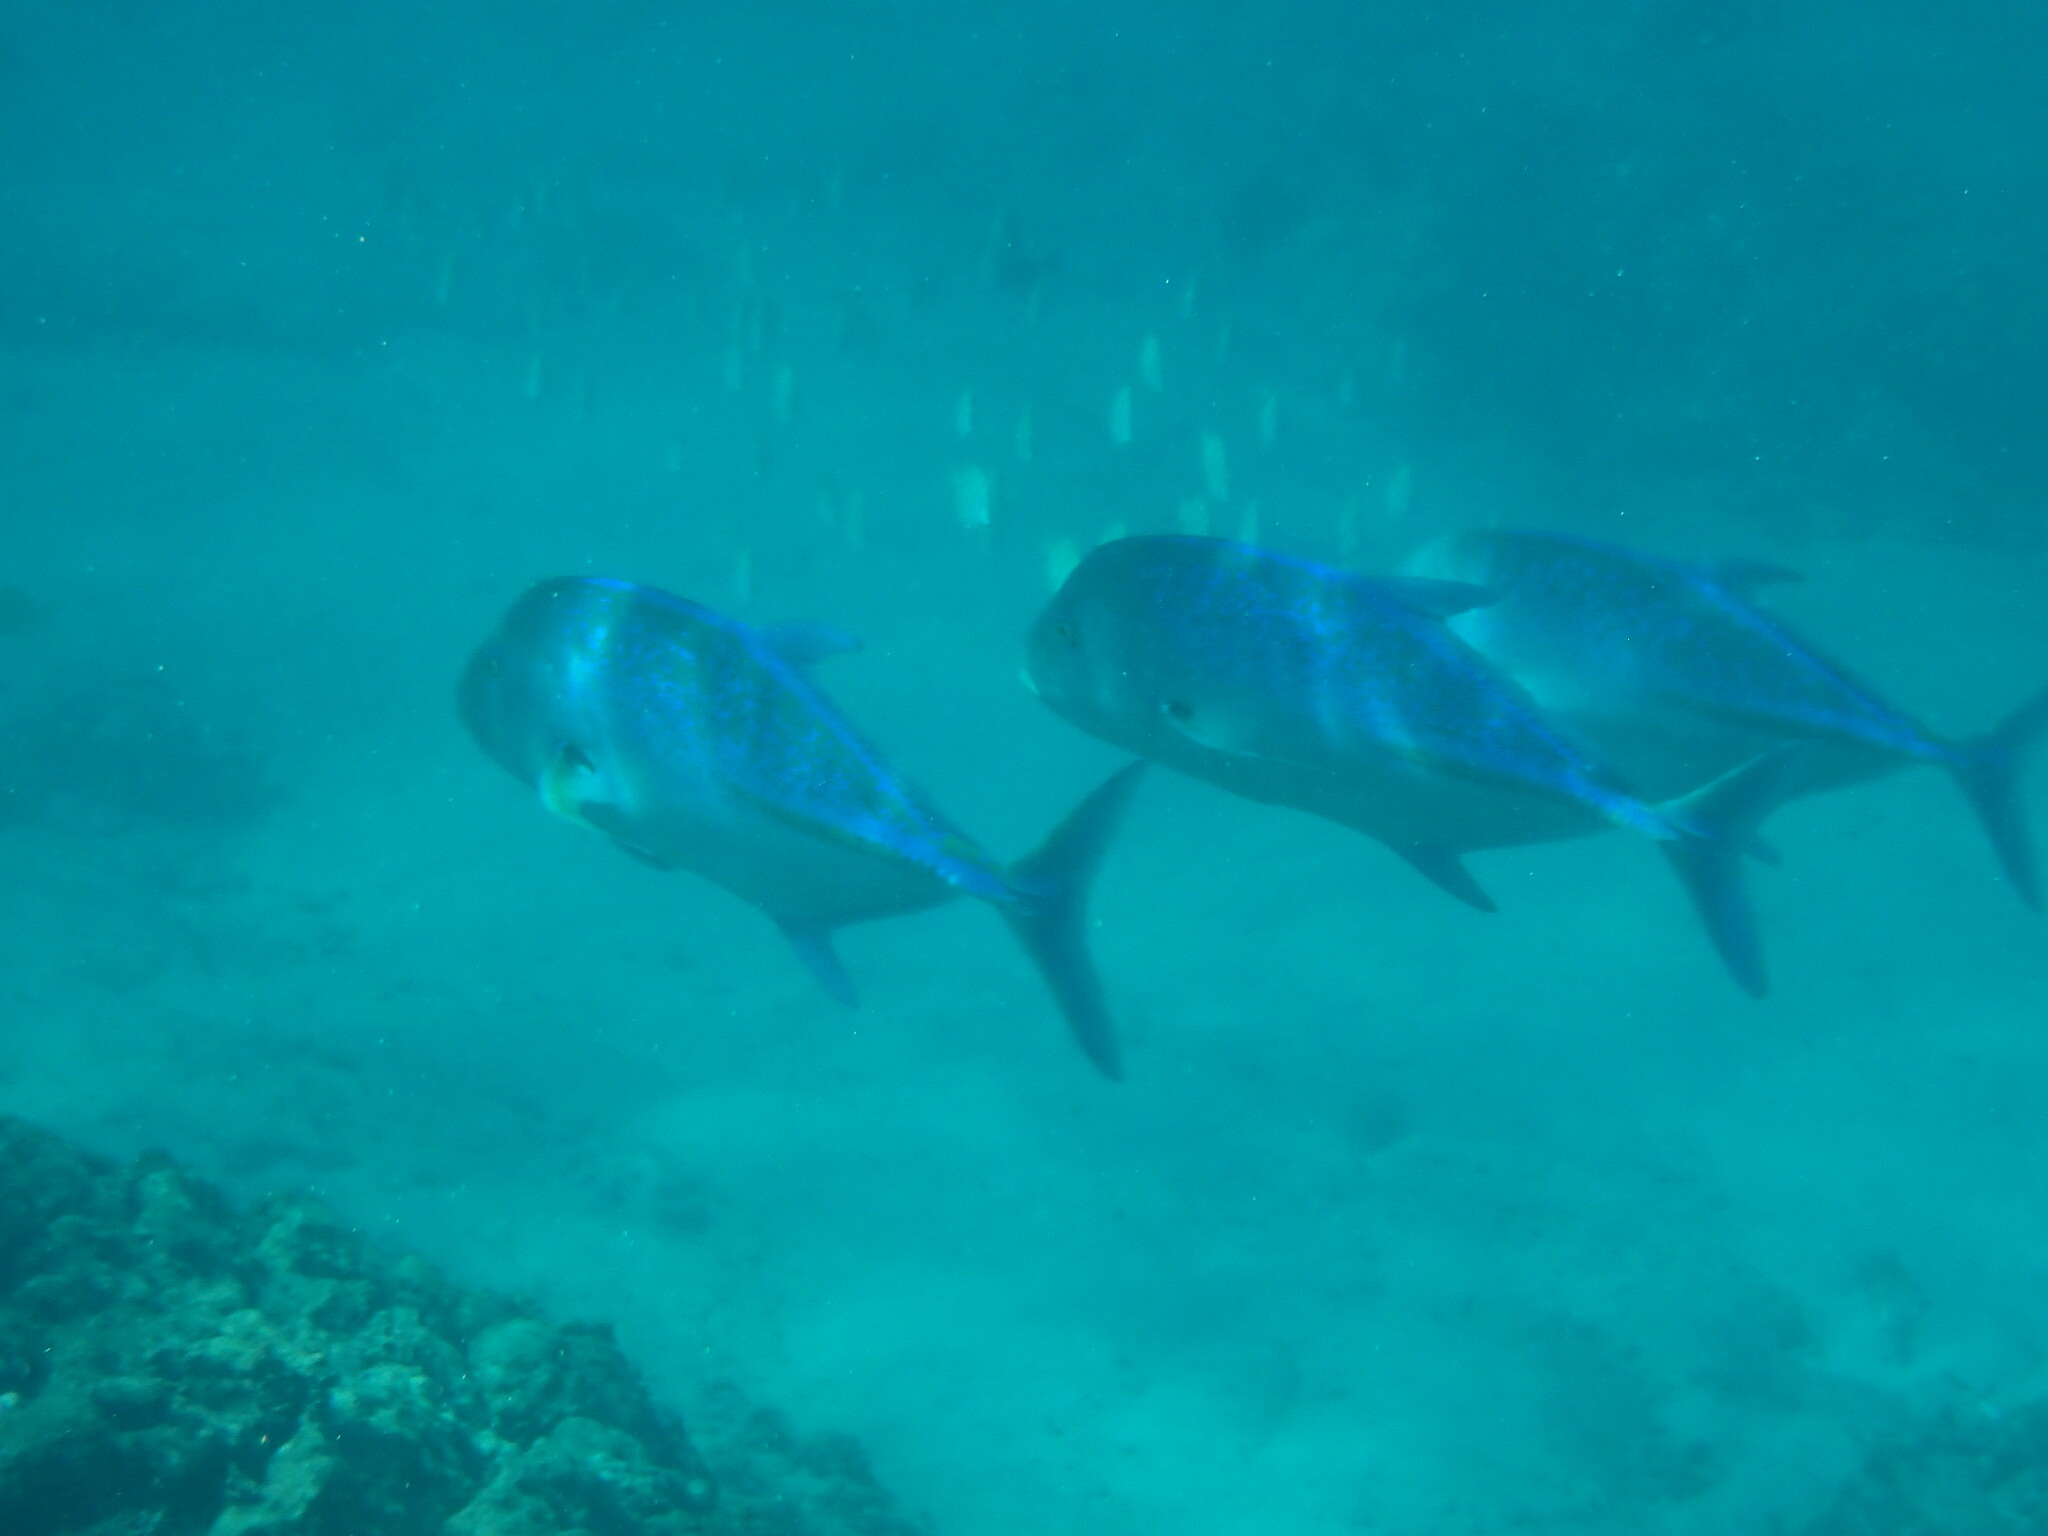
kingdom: Animalia
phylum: Chordata
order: Perciformes
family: Carangidae
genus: Caranx
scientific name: Caranx melampygus
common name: Bluefin trevally
